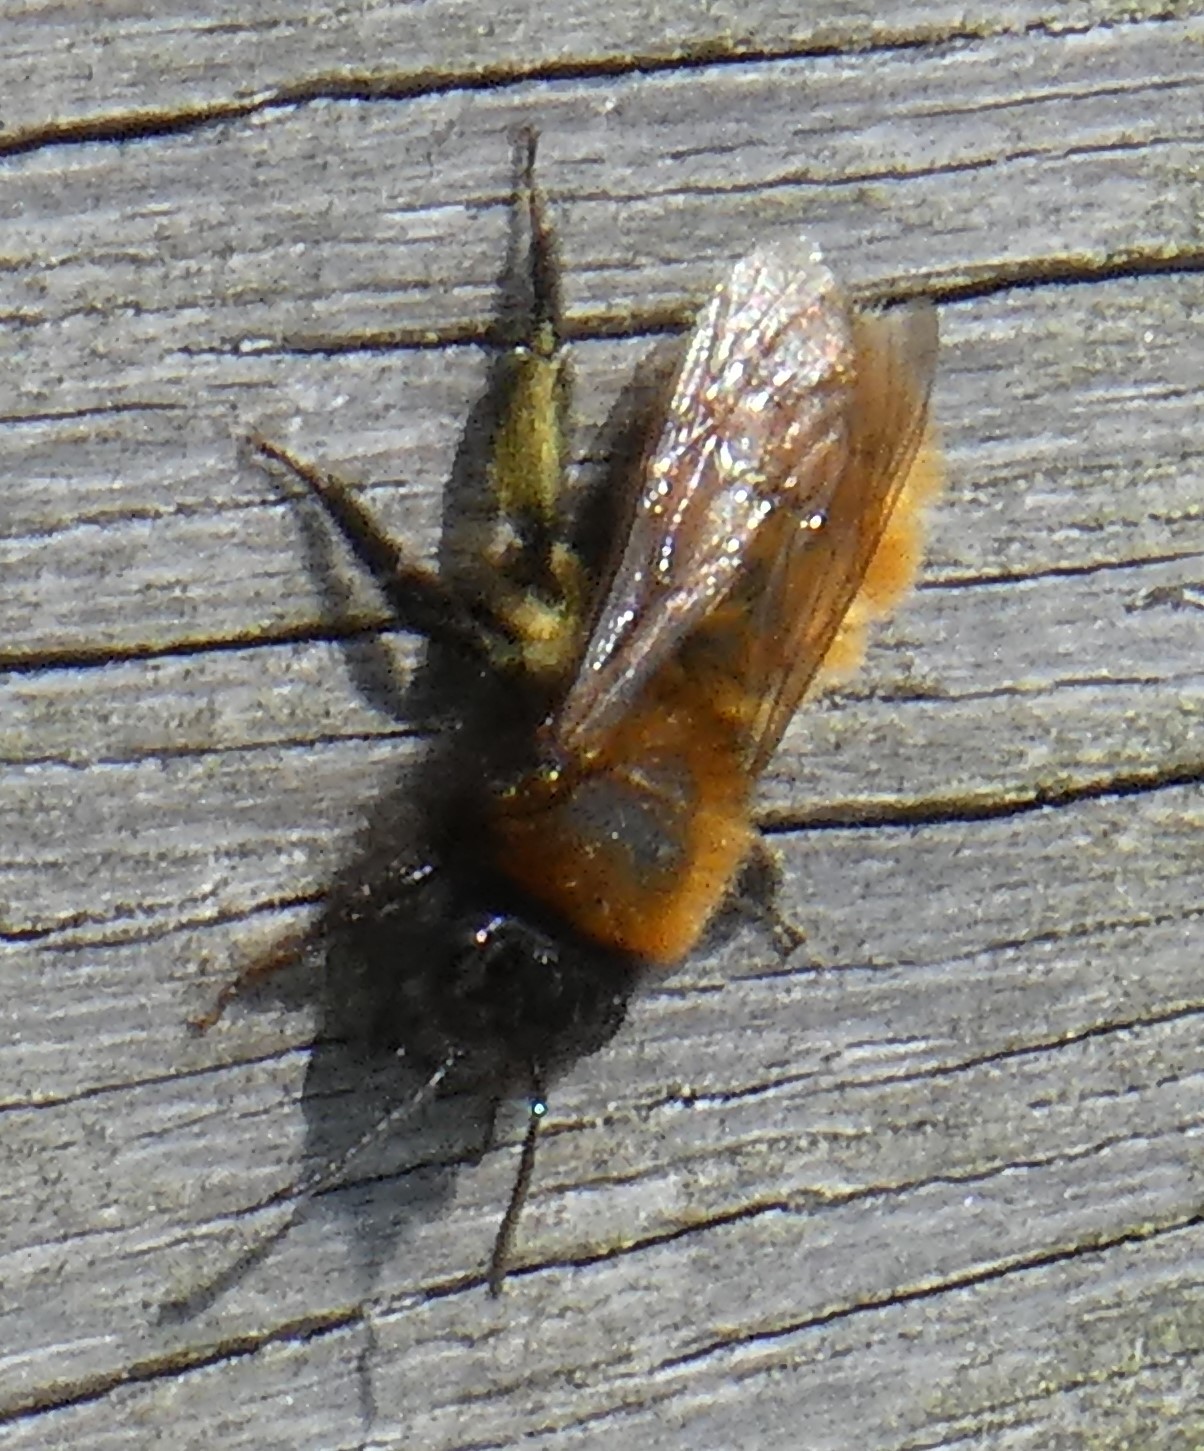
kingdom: Animalia
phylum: Arthropoda
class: Insecta
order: Hymenoptera
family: Andrenidae
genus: Andrena
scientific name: Andrena fulva
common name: Tawny mining bee
